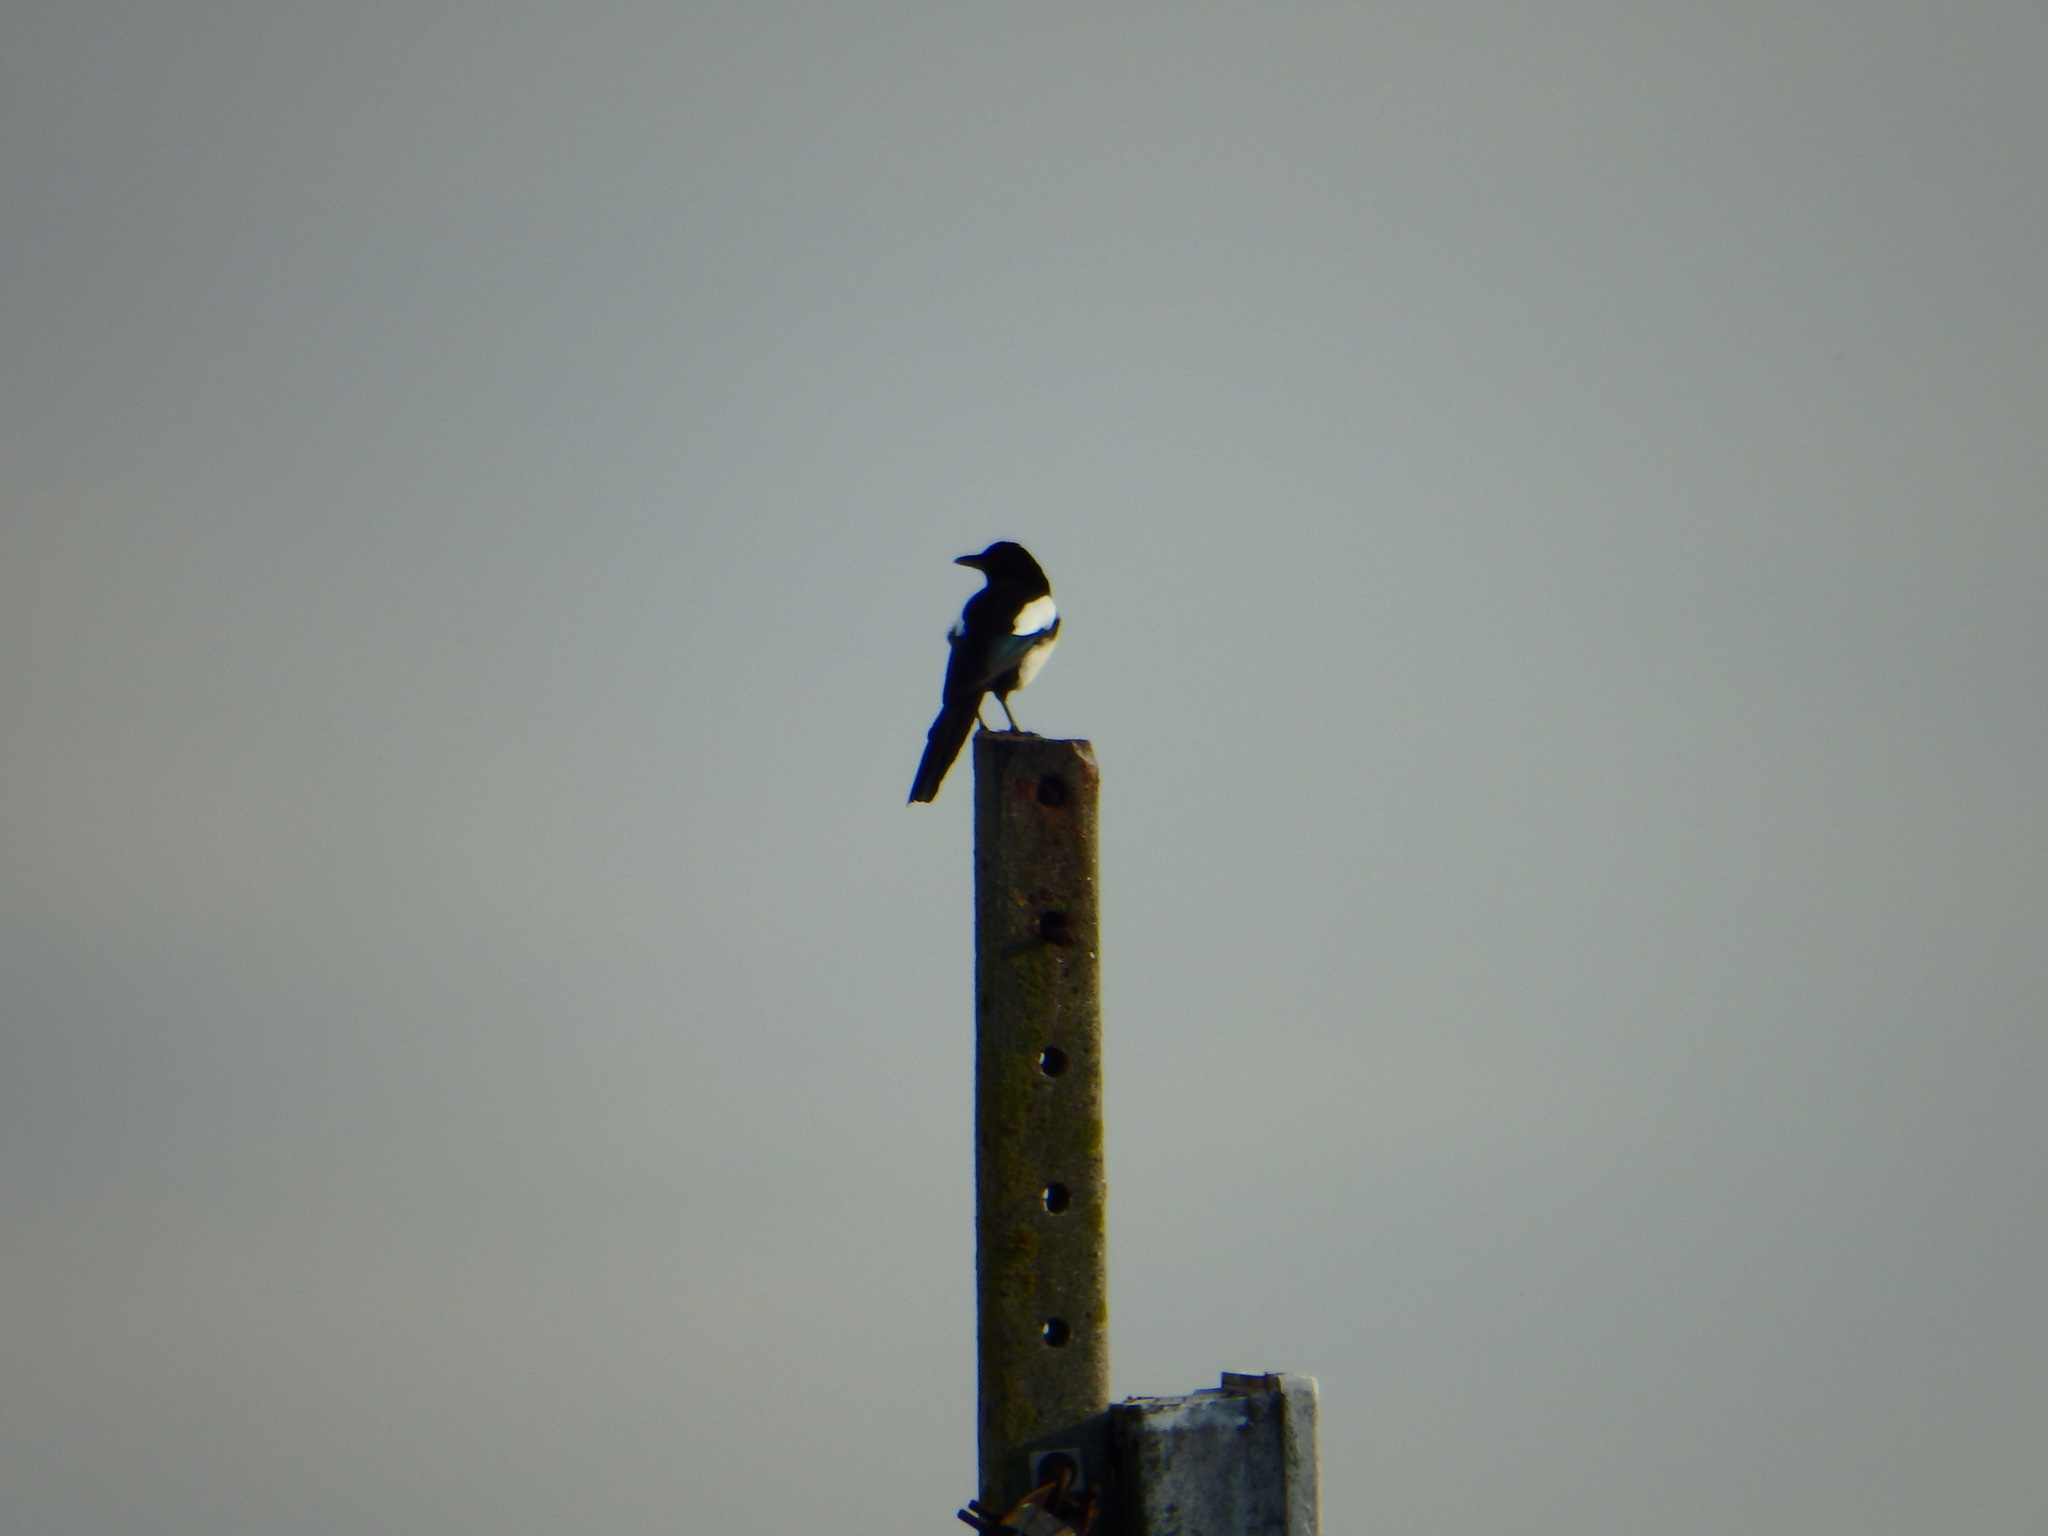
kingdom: Animalia
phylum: Chordata
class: Aves
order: Passeriformes
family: Corvidae
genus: Pica
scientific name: Pica pica
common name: Eurasian magpie
